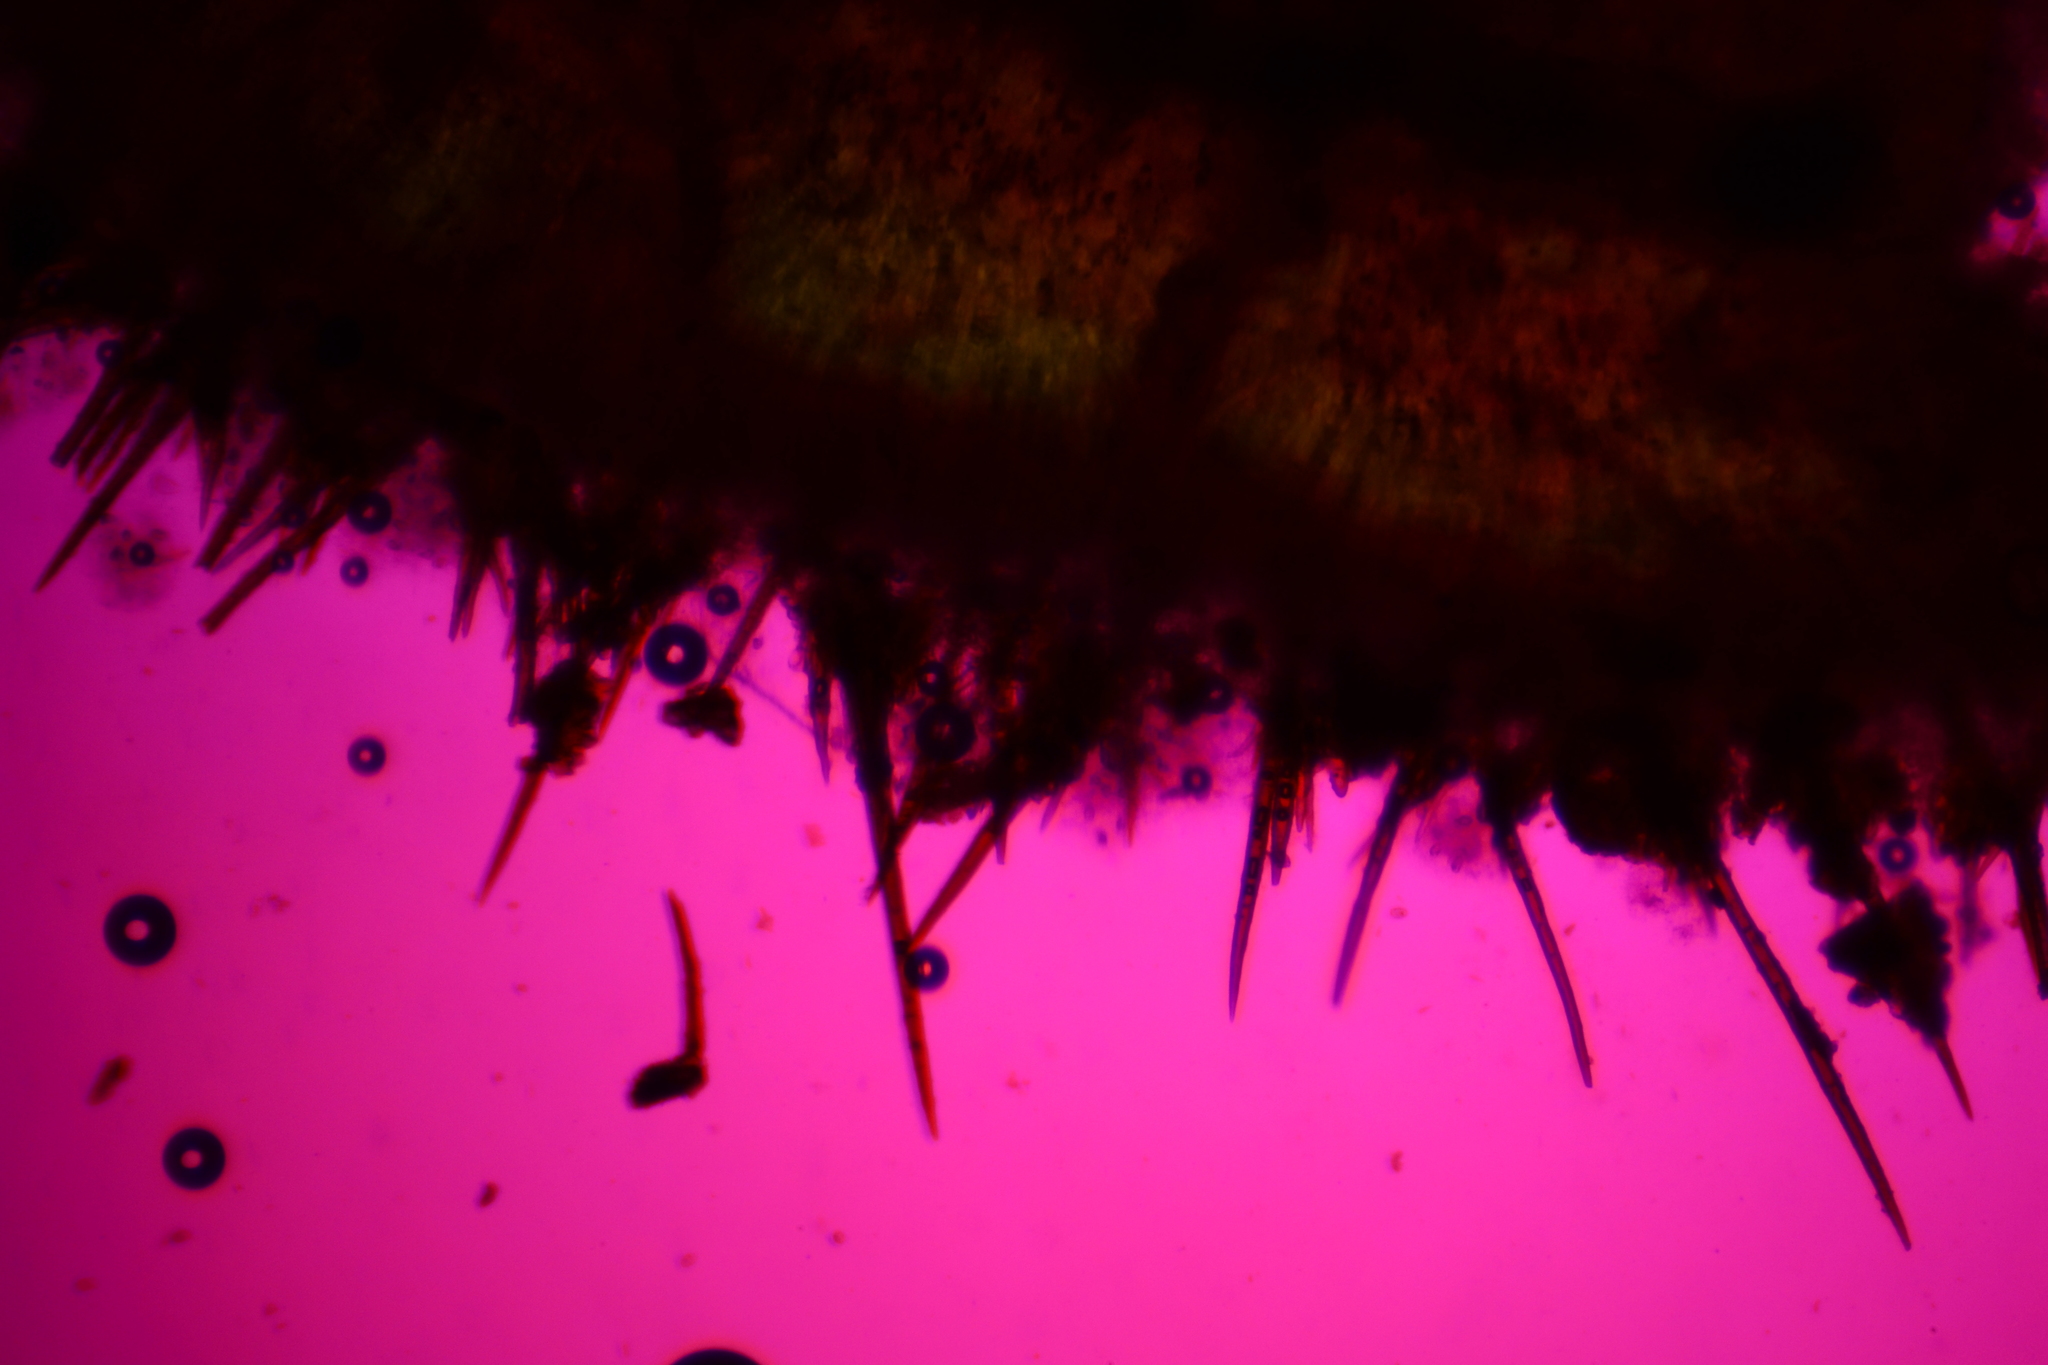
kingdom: Fungi
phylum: Ascomycota
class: Pezizomycetes
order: Pezizales
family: Pyronemataceae
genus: Scutellinia
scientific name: Scutellinia scutellata
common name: Common eyelash
